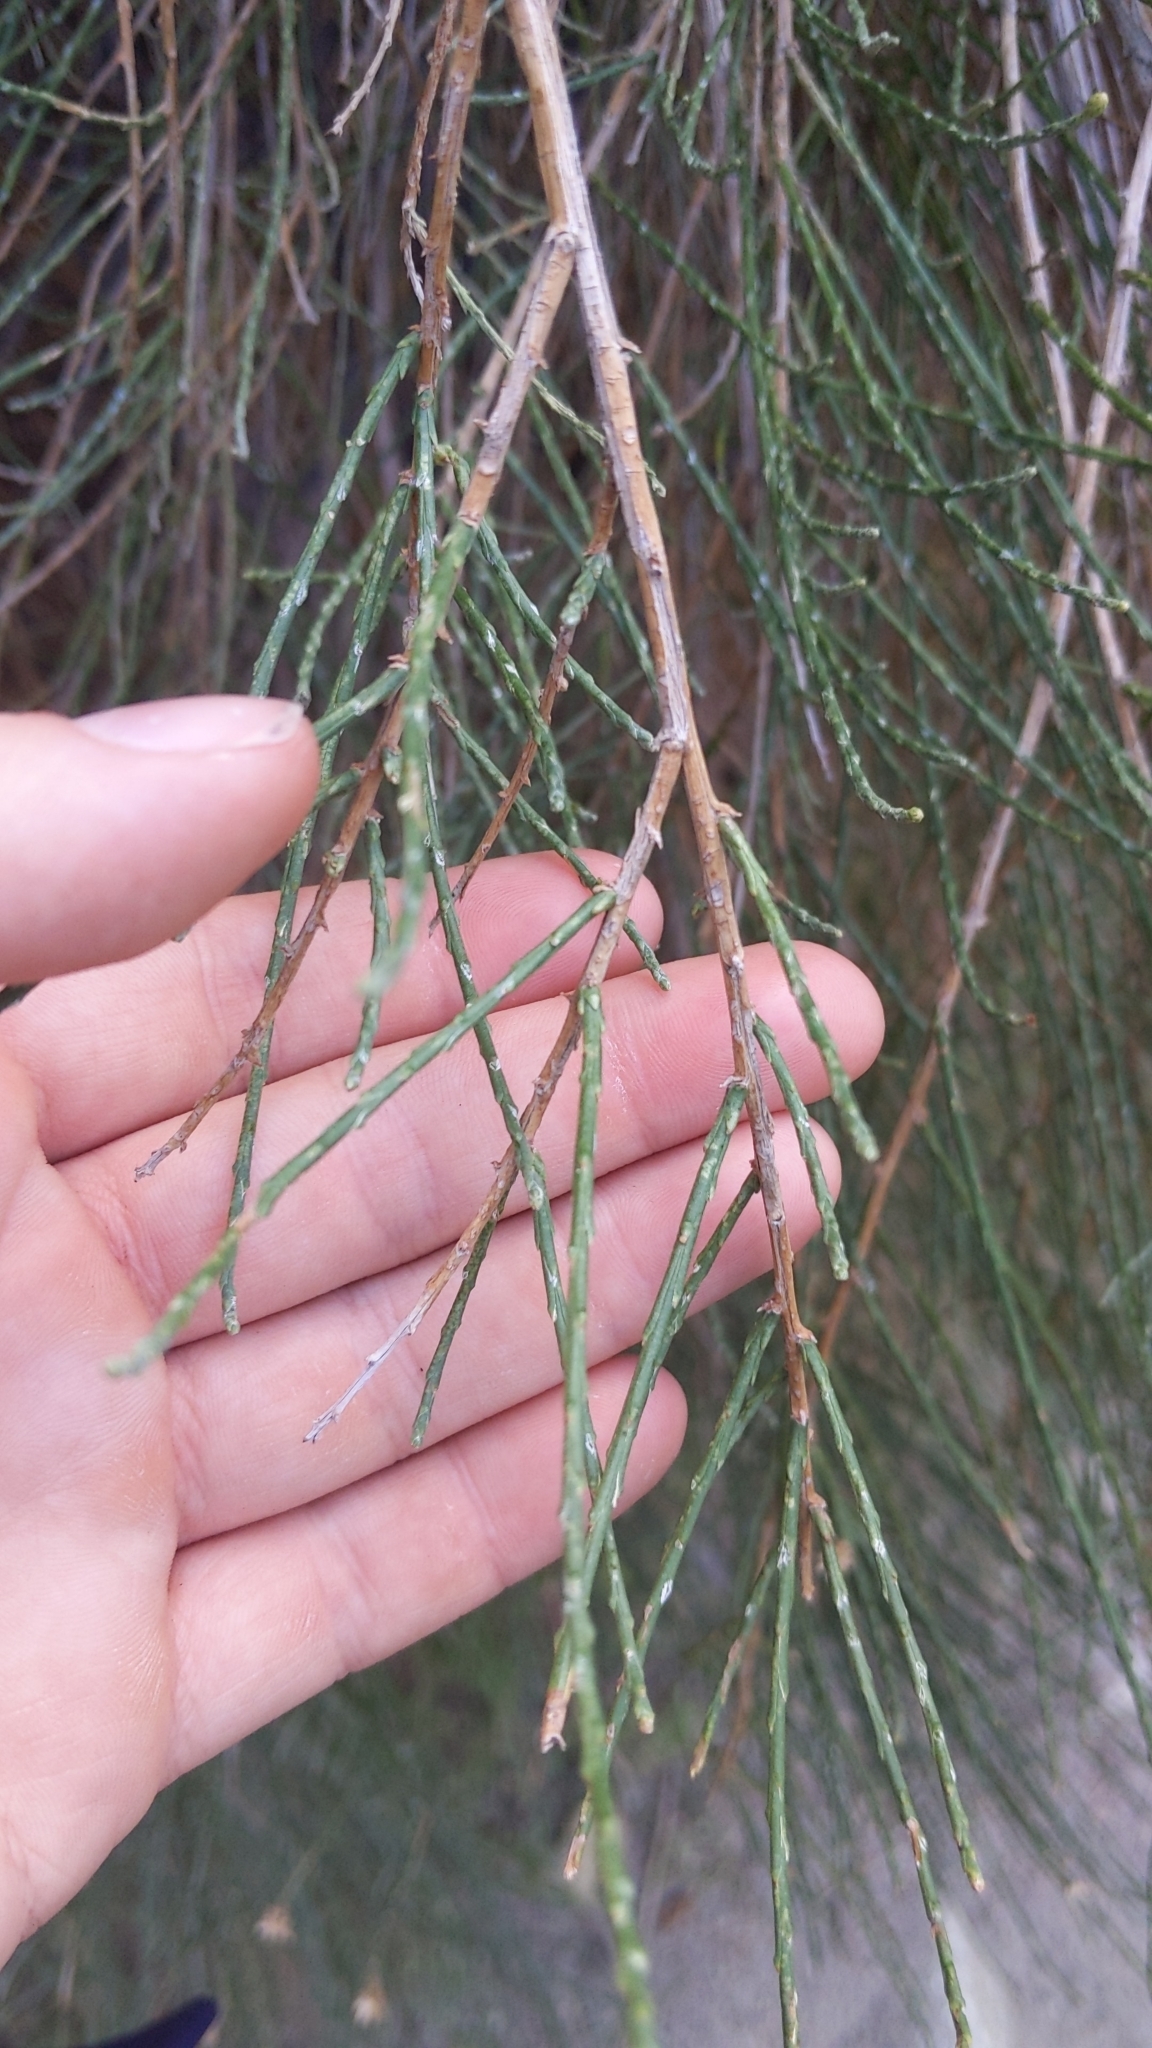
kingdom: Plantae
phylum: Tracheophyta
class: Magnoliopsida
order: Asterales
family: Asteraceae
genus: Lepidospartum
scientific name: Lepidospartum squamatum
